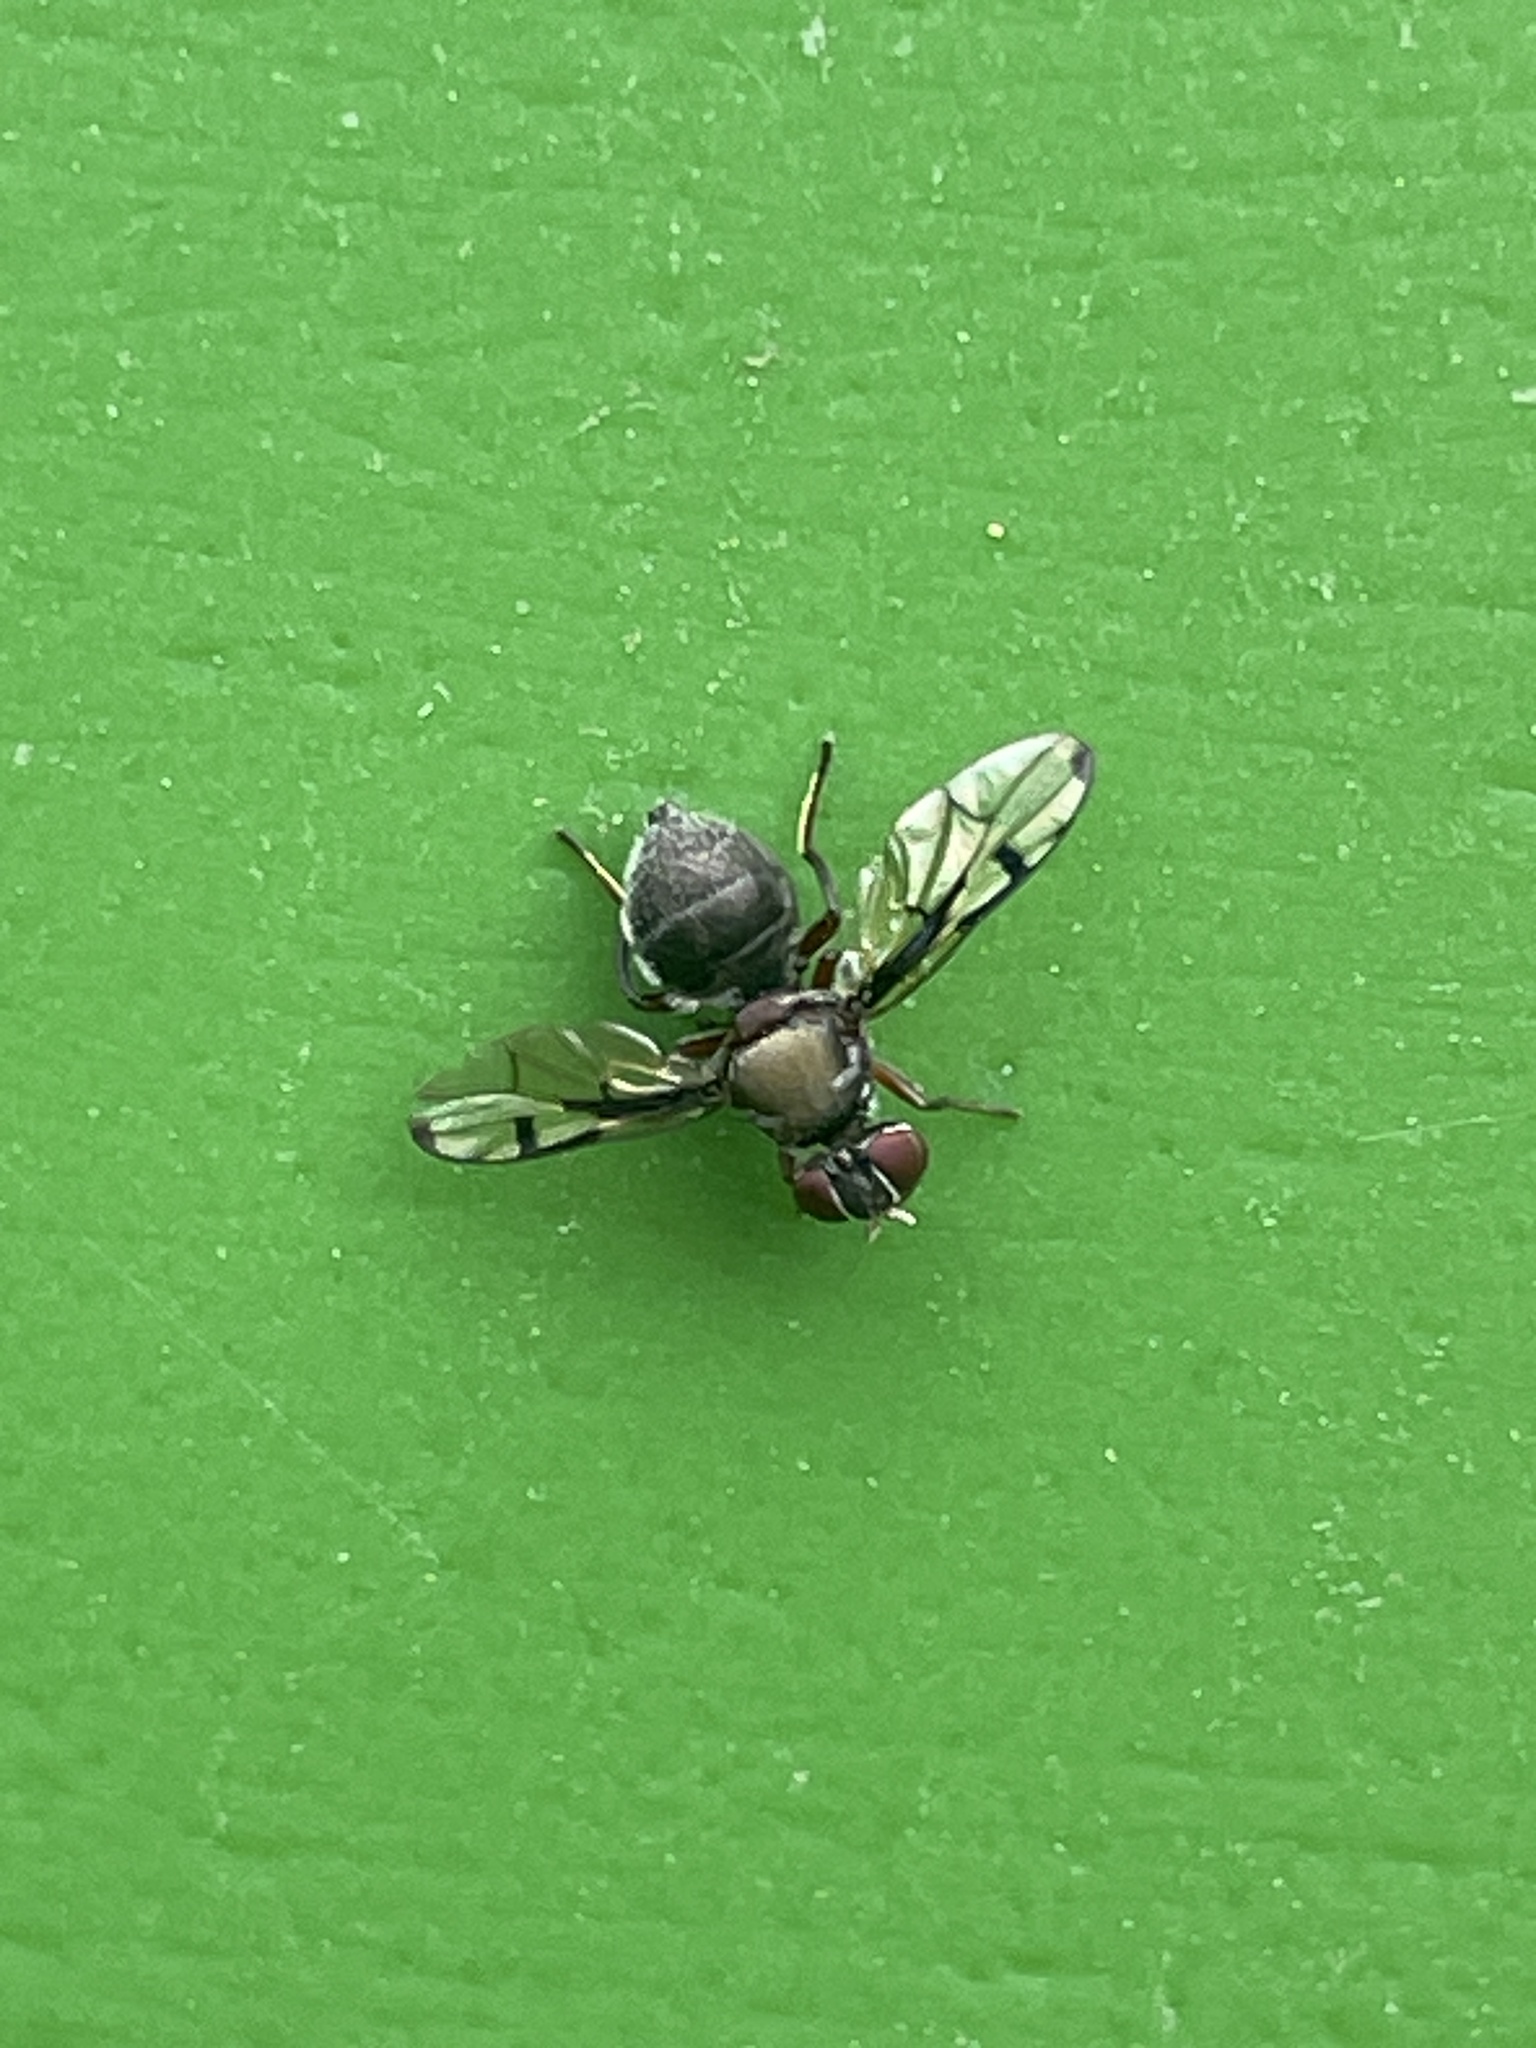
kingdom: Animalia
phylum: Arthropoda
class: Insecta
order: Diptera
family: Platystomatidae
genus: Pogonortalis
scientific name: Pogonortalis doclea
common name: Boatman fly
